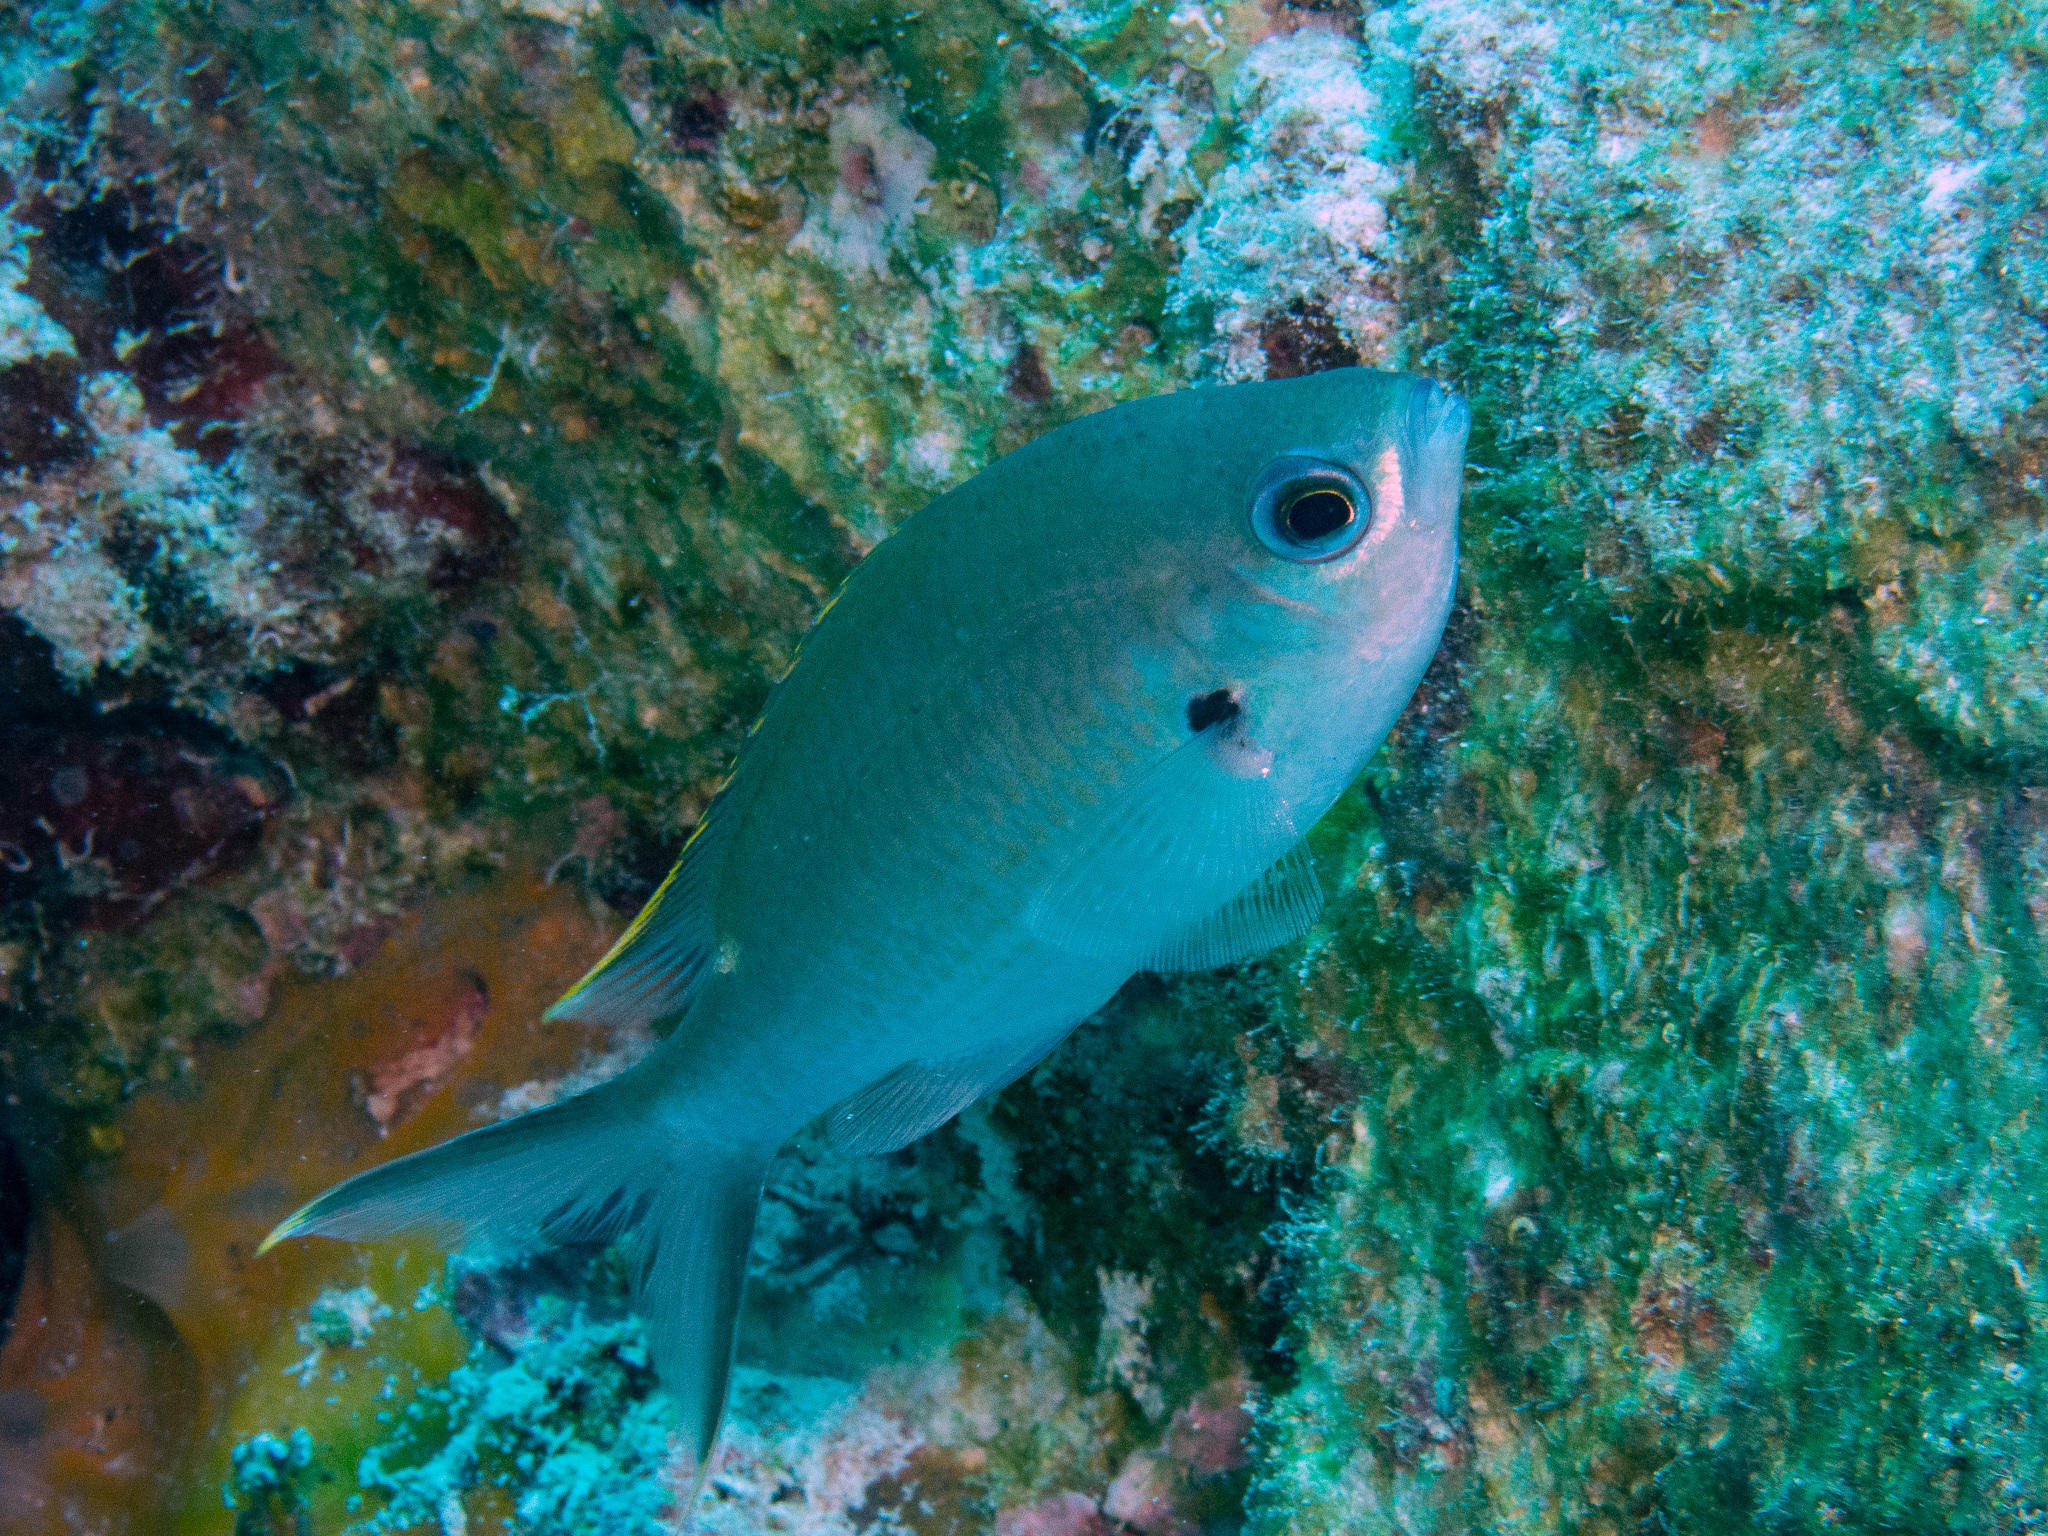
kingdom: Animalia
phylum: Chordata
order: Perciformes
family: Pomacentridae
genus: Chromis
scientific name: Chromis multilineata
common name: Brown chromis
